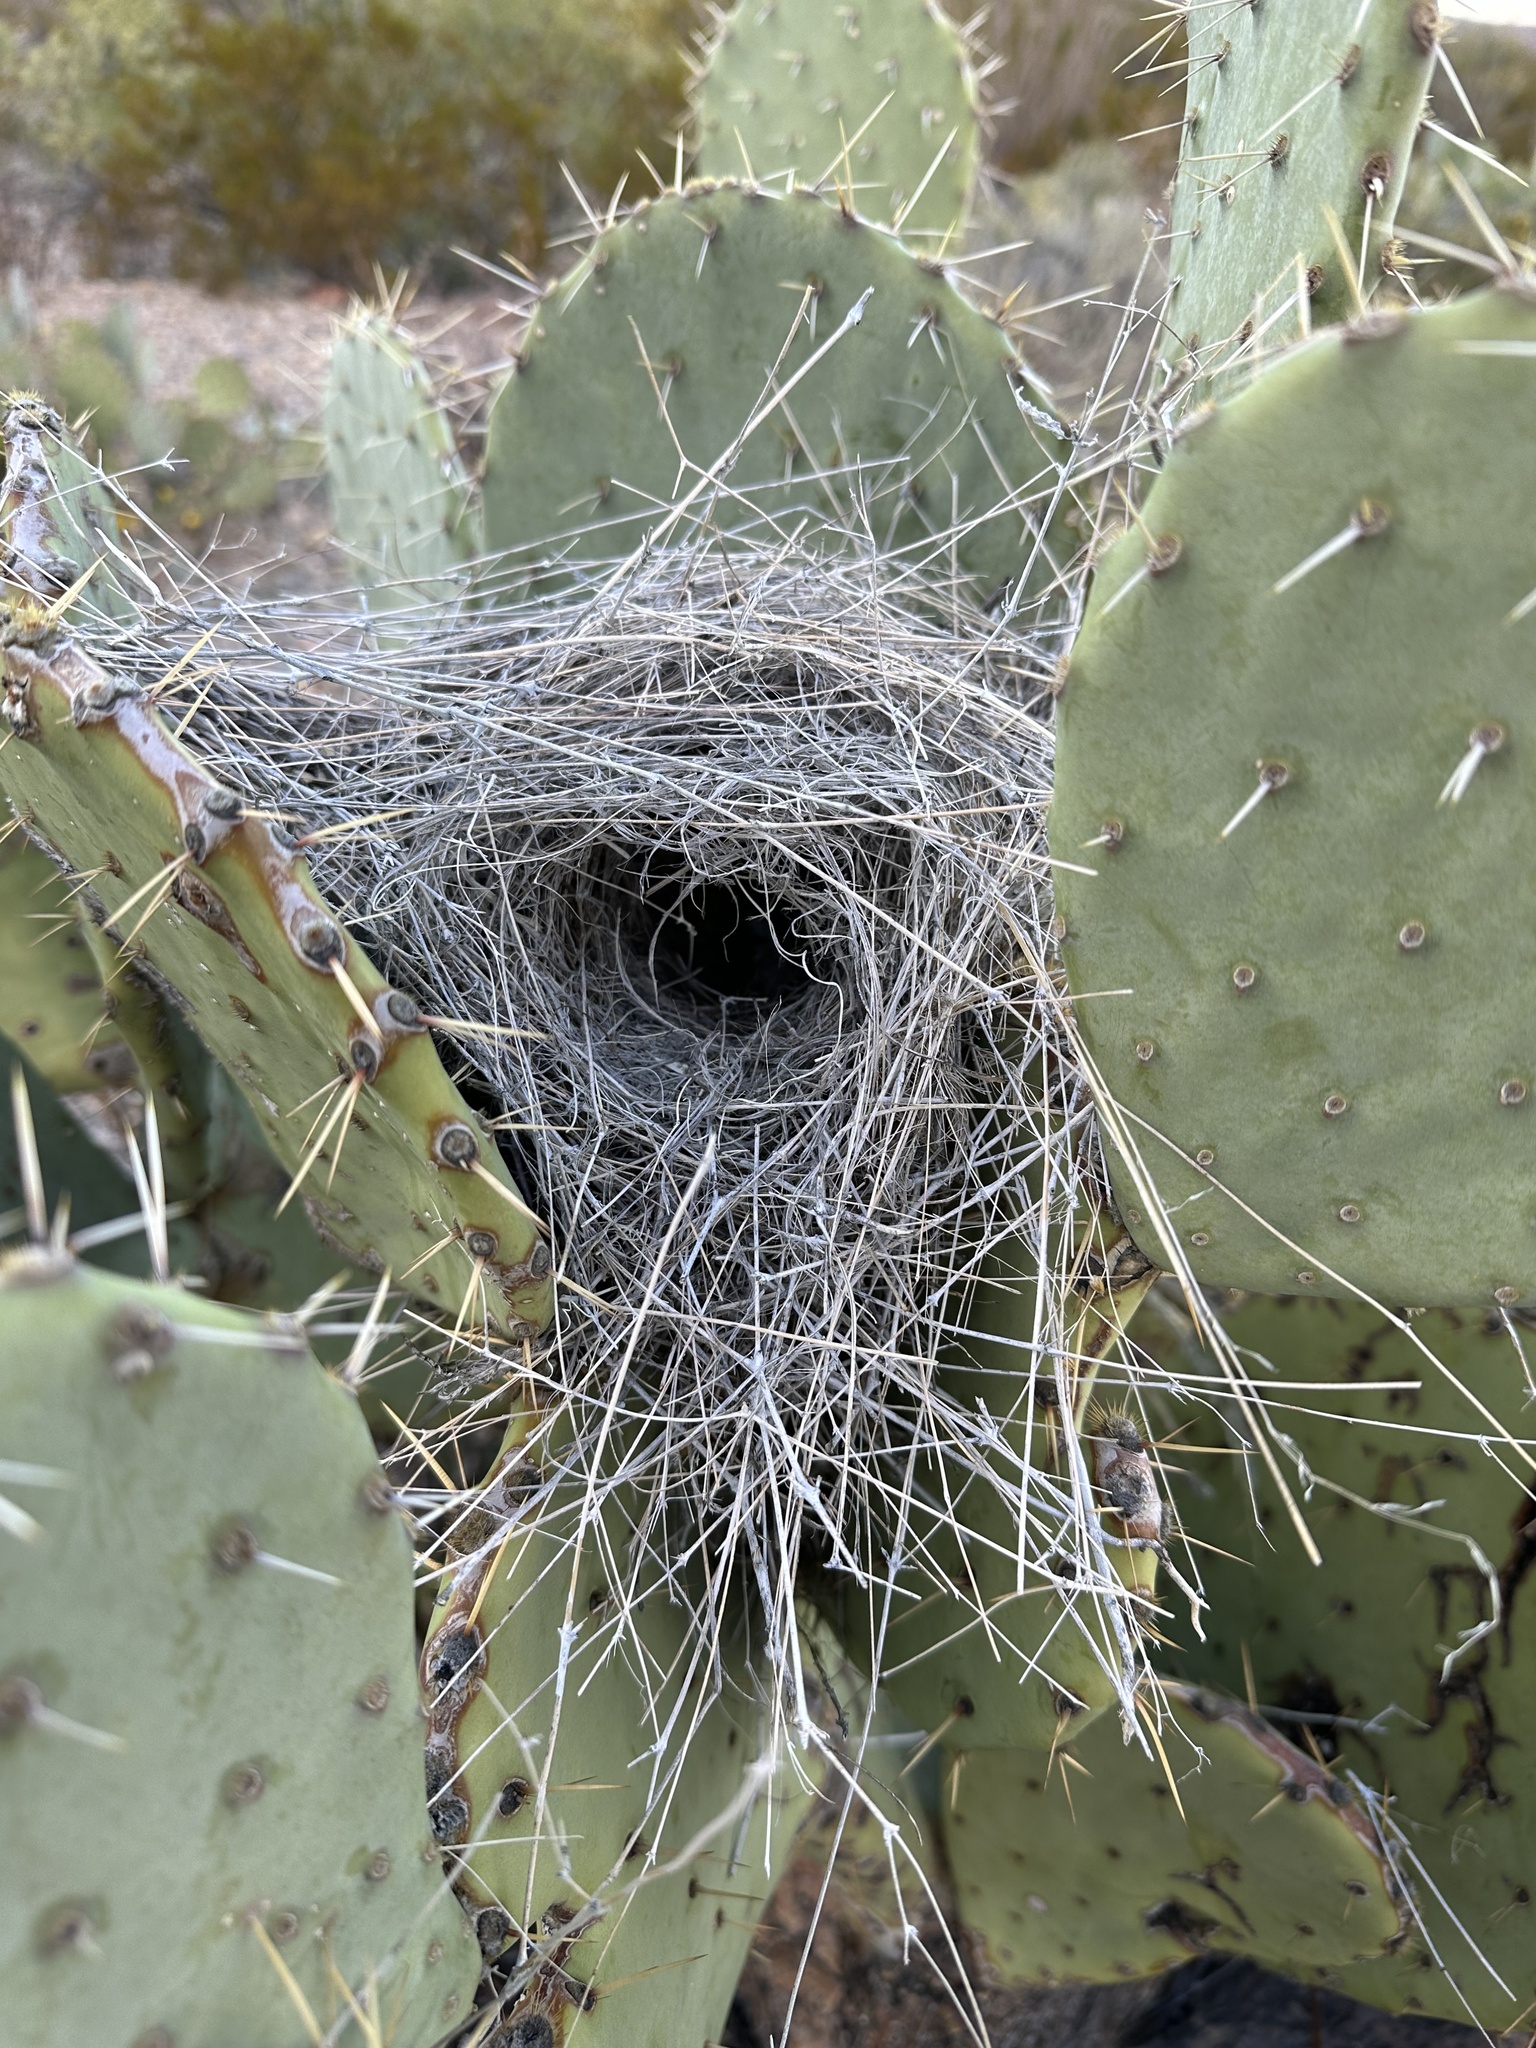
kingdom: Animalia
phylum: Chordata
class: Aves
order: Passeriformes
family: Troglodytidae
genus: Campylorhynchus
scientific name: Campylorhynchus brunneicapillus
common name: Cactus wren
